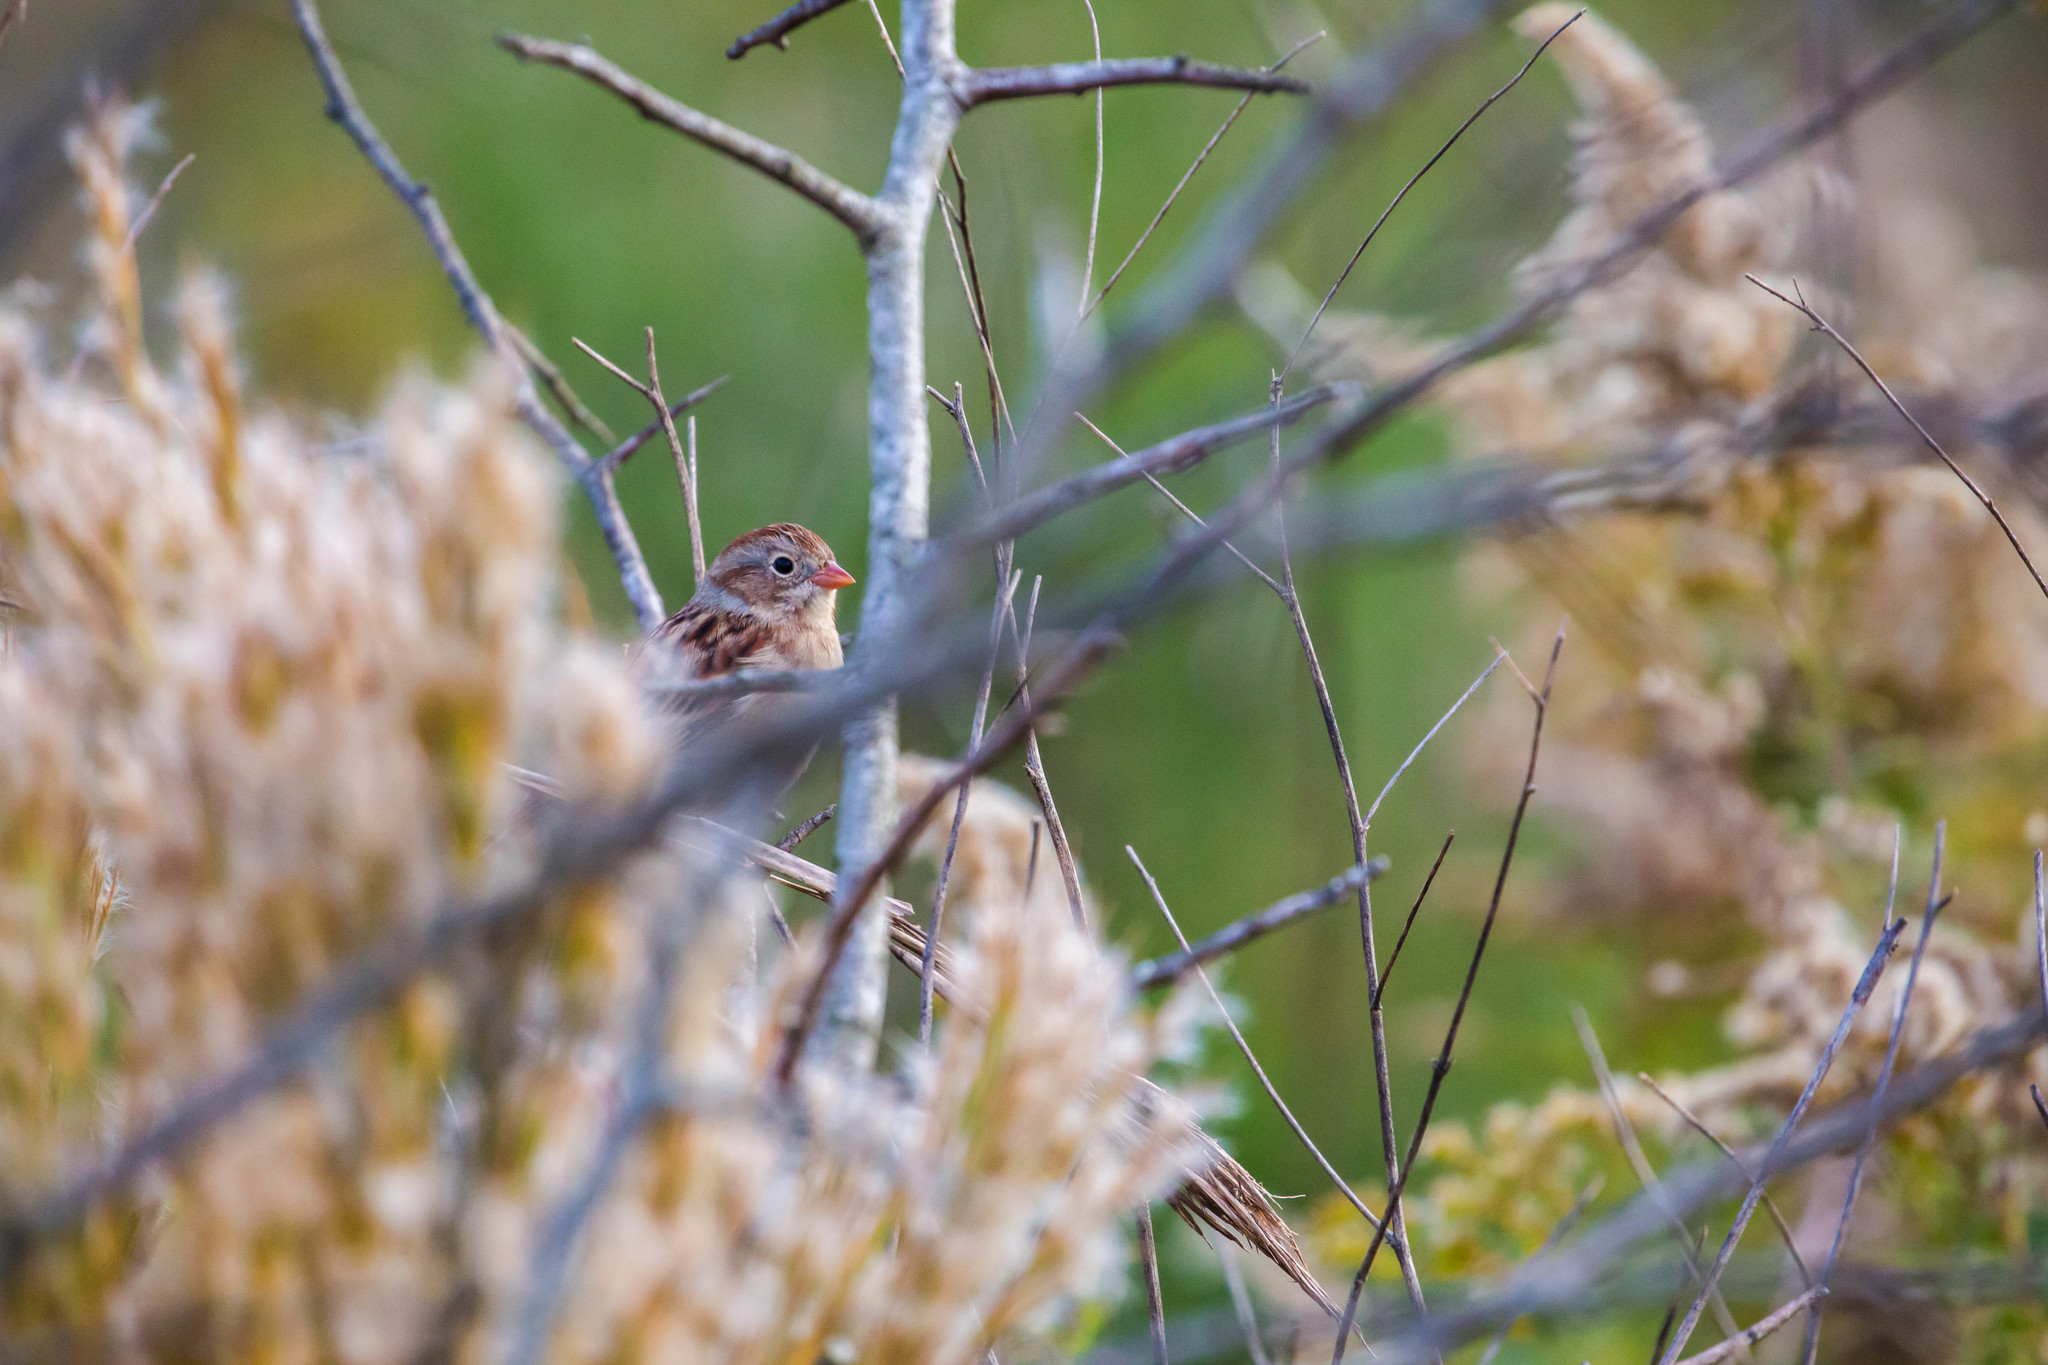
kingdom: Animalia
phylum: Chordata
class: Aves
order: Passeriformes
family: Passerellidae
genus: Spizella
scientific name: Spizella pusilla
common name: Field sparrow
